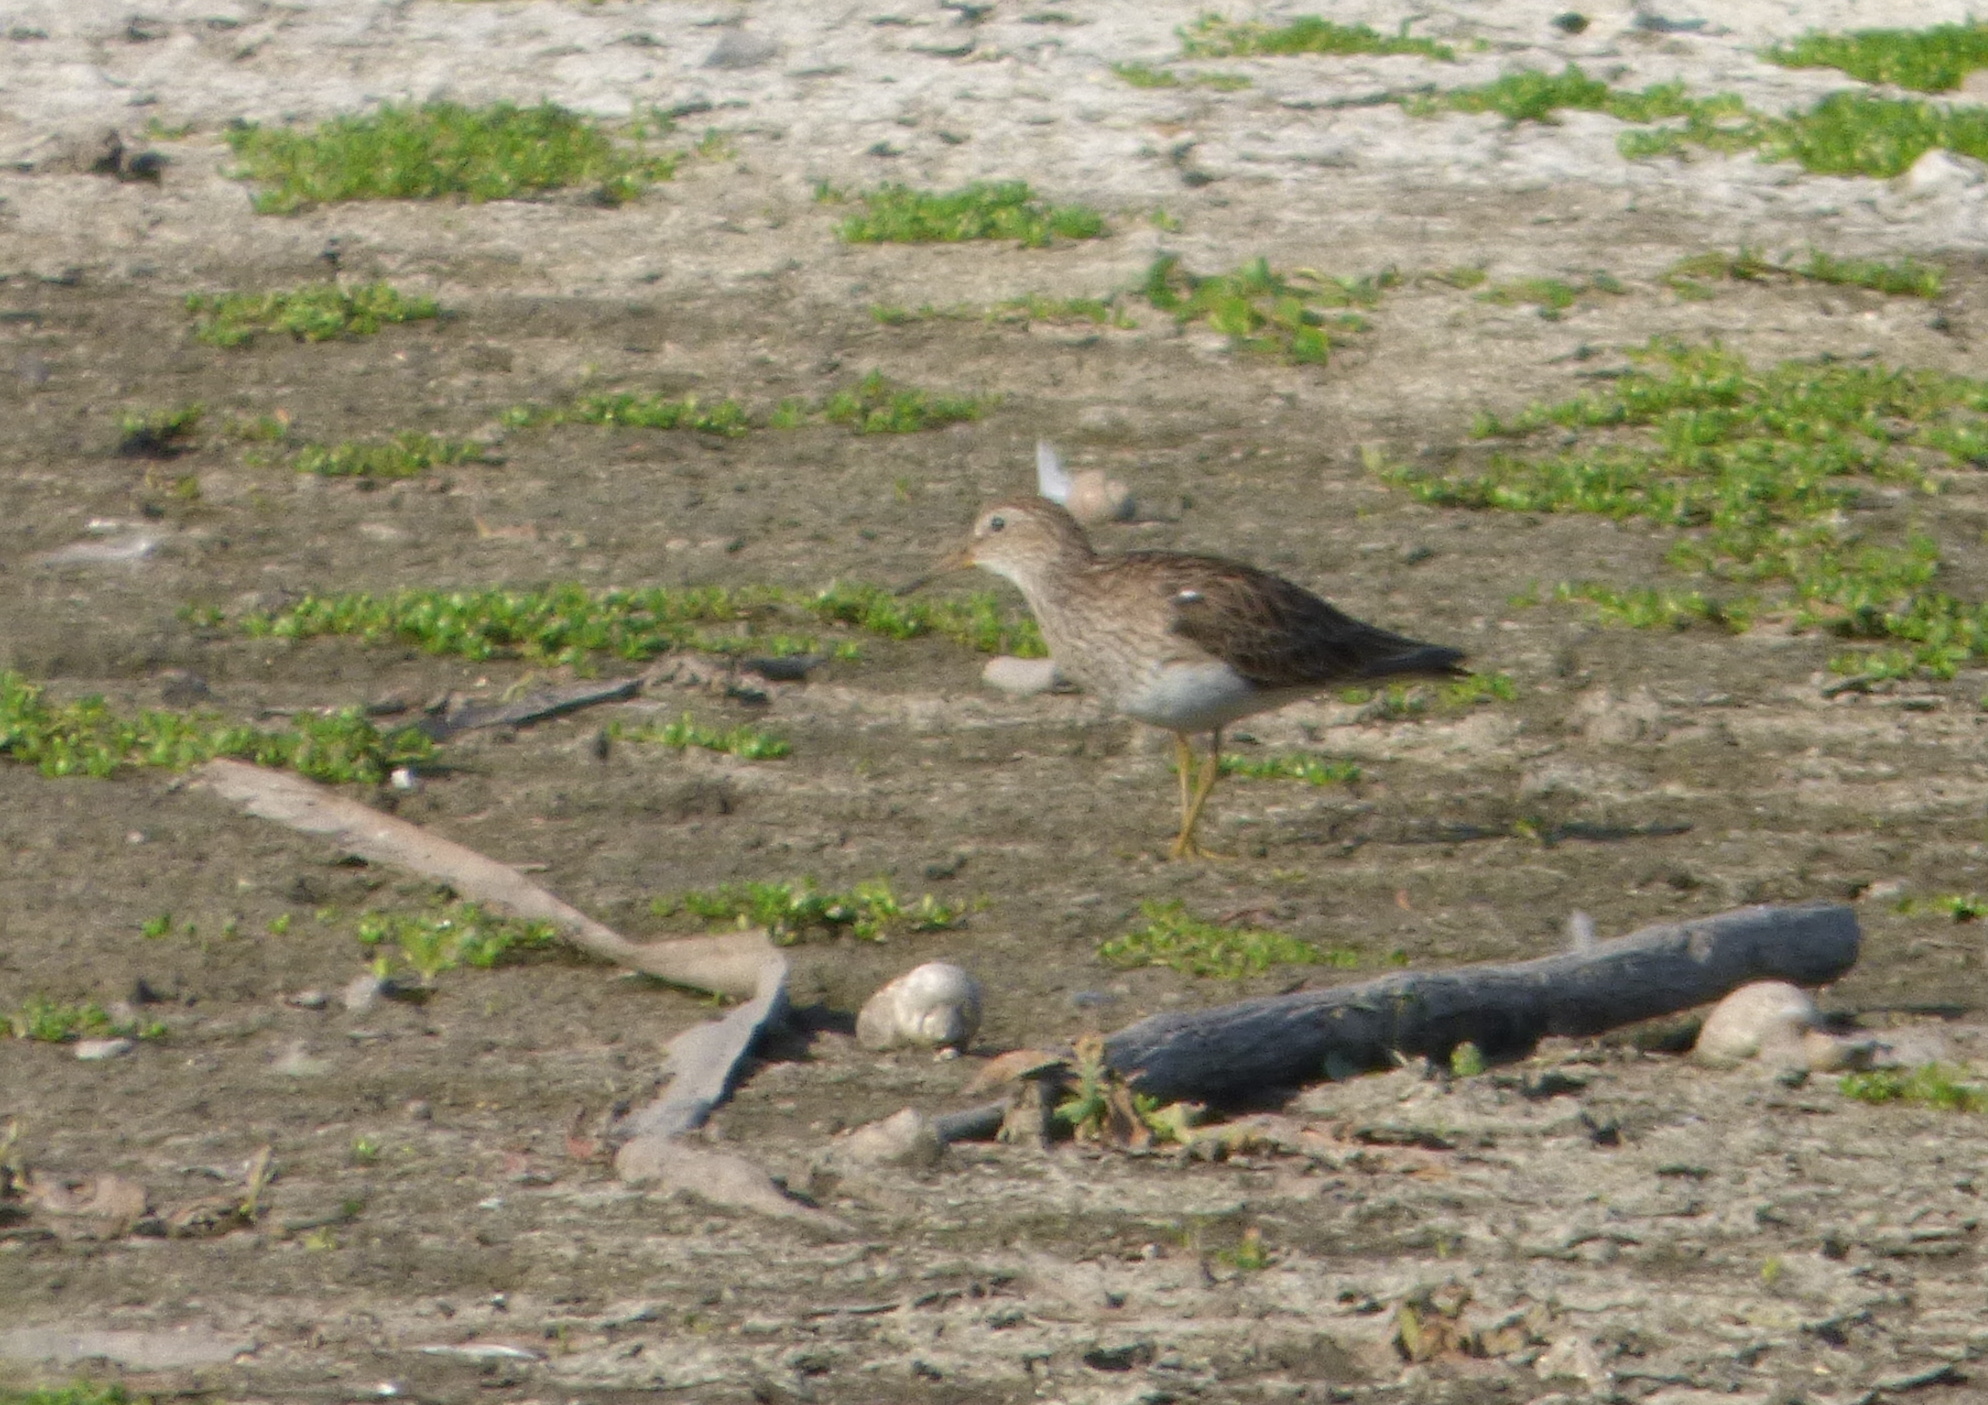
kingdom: Animalia
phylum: Chordata
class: Aves
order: Charadriiformes
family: Scolopacidae
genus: Calidris
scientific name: Calidris melanotos
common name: Pectoral sandpiper
